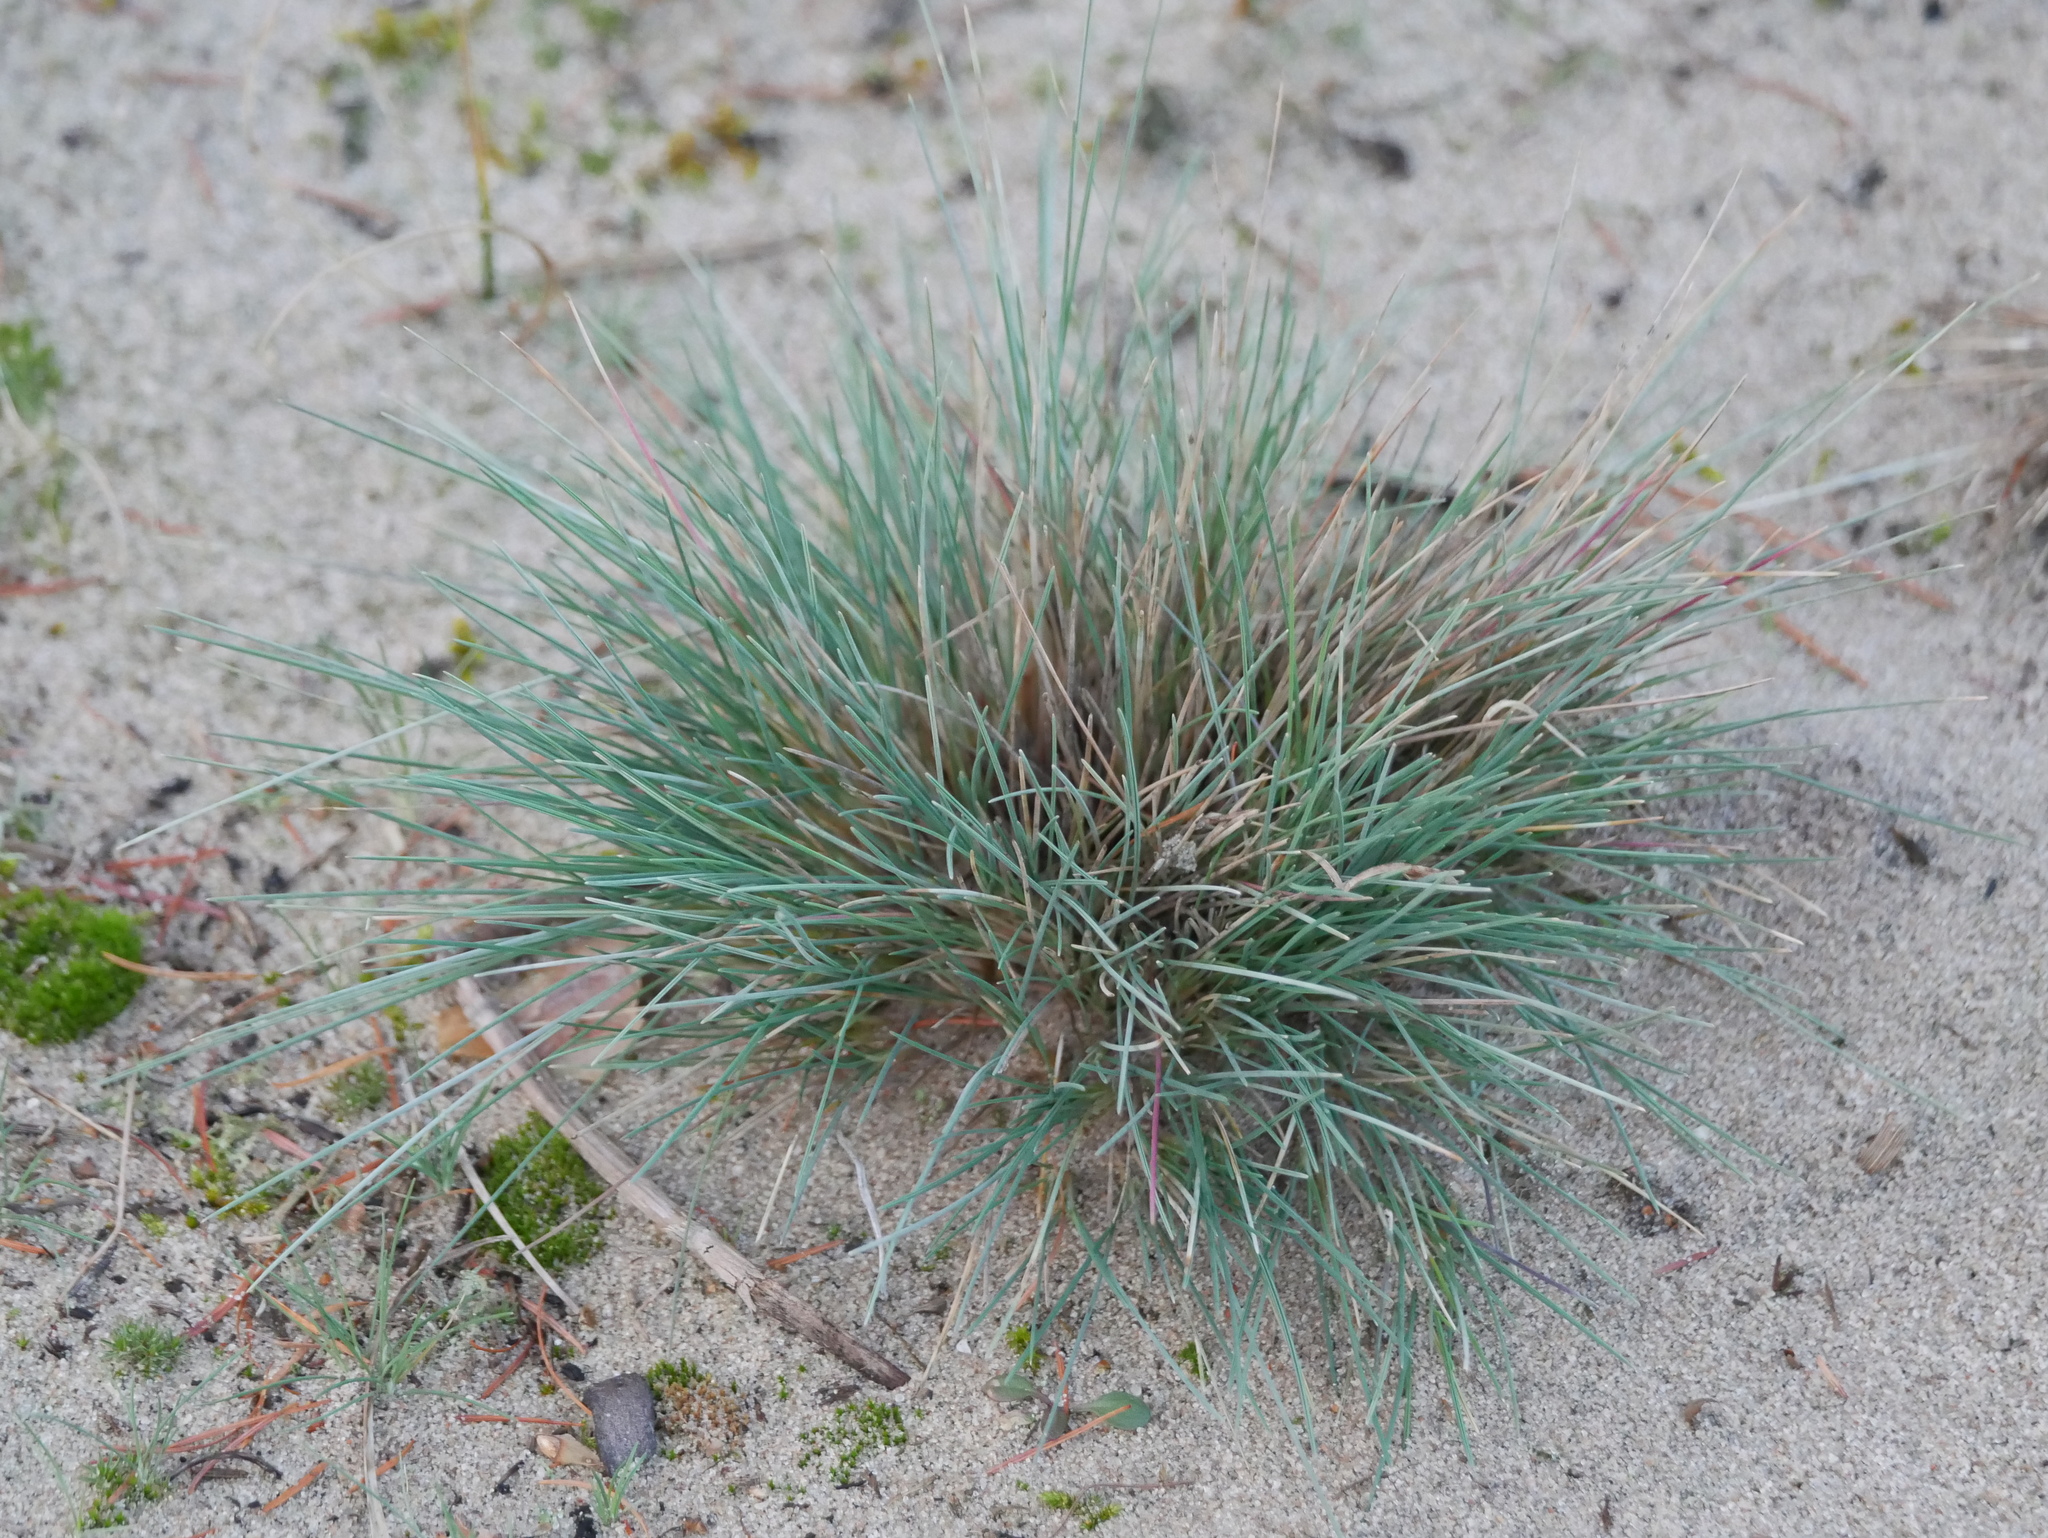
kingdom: Plantae
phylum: Tracheophyta
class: Liliopsida
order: Poales
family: Poaceae
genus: Corynephorus
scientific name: Corynephorus canescens
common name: Grey hair-grass
